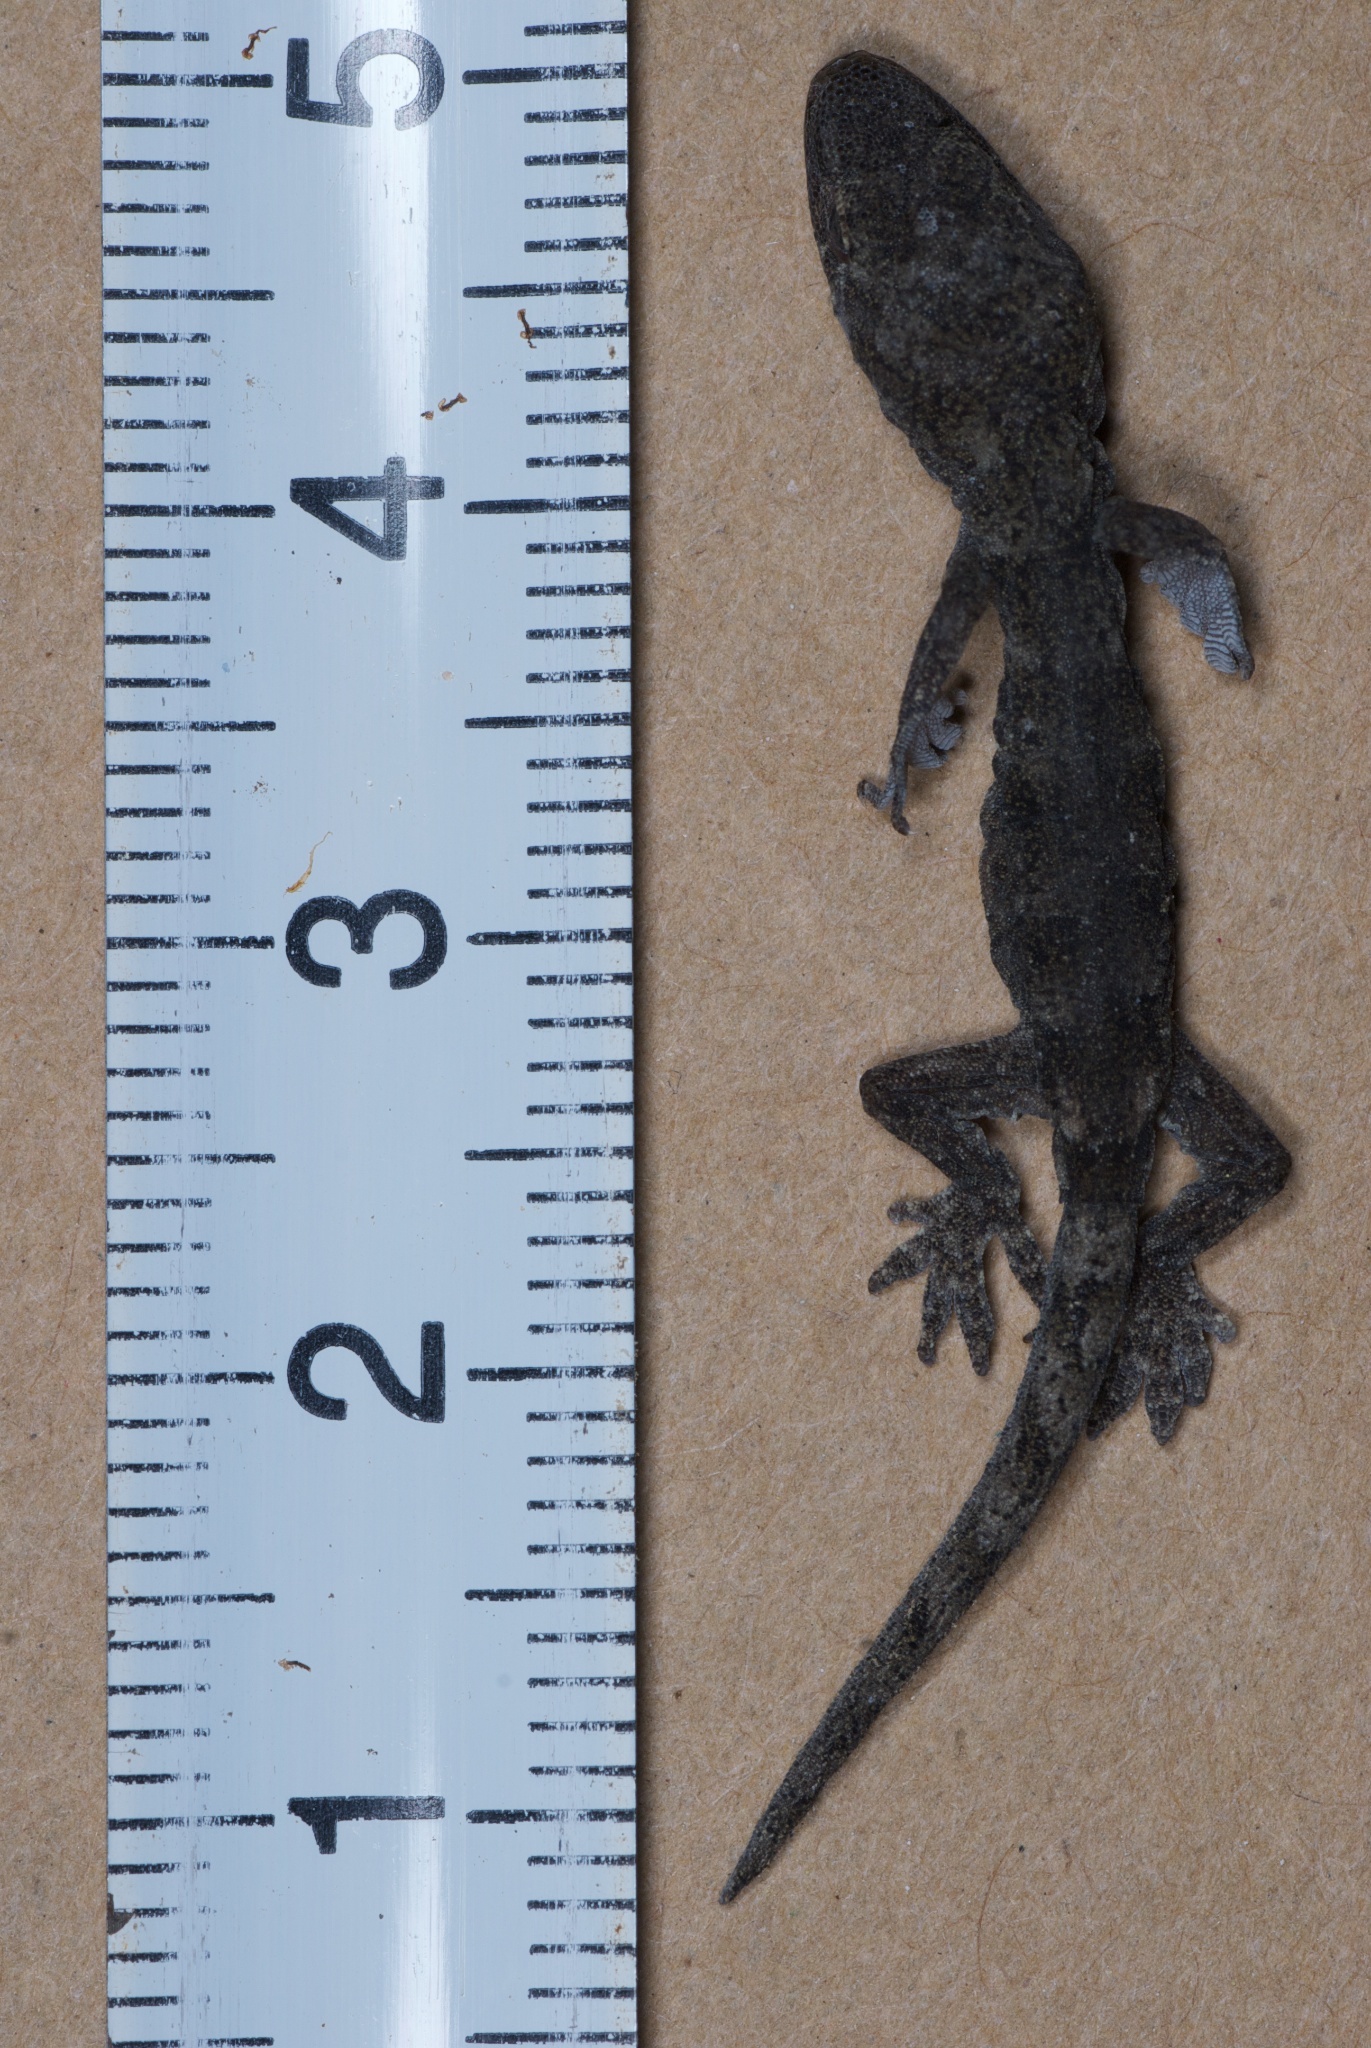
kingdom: Animalia
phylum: Chordata
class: Squamata
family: Diplodactylidae
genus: Woodworthia
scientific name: Woodworthia brunnea
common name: Canterbury gecko
